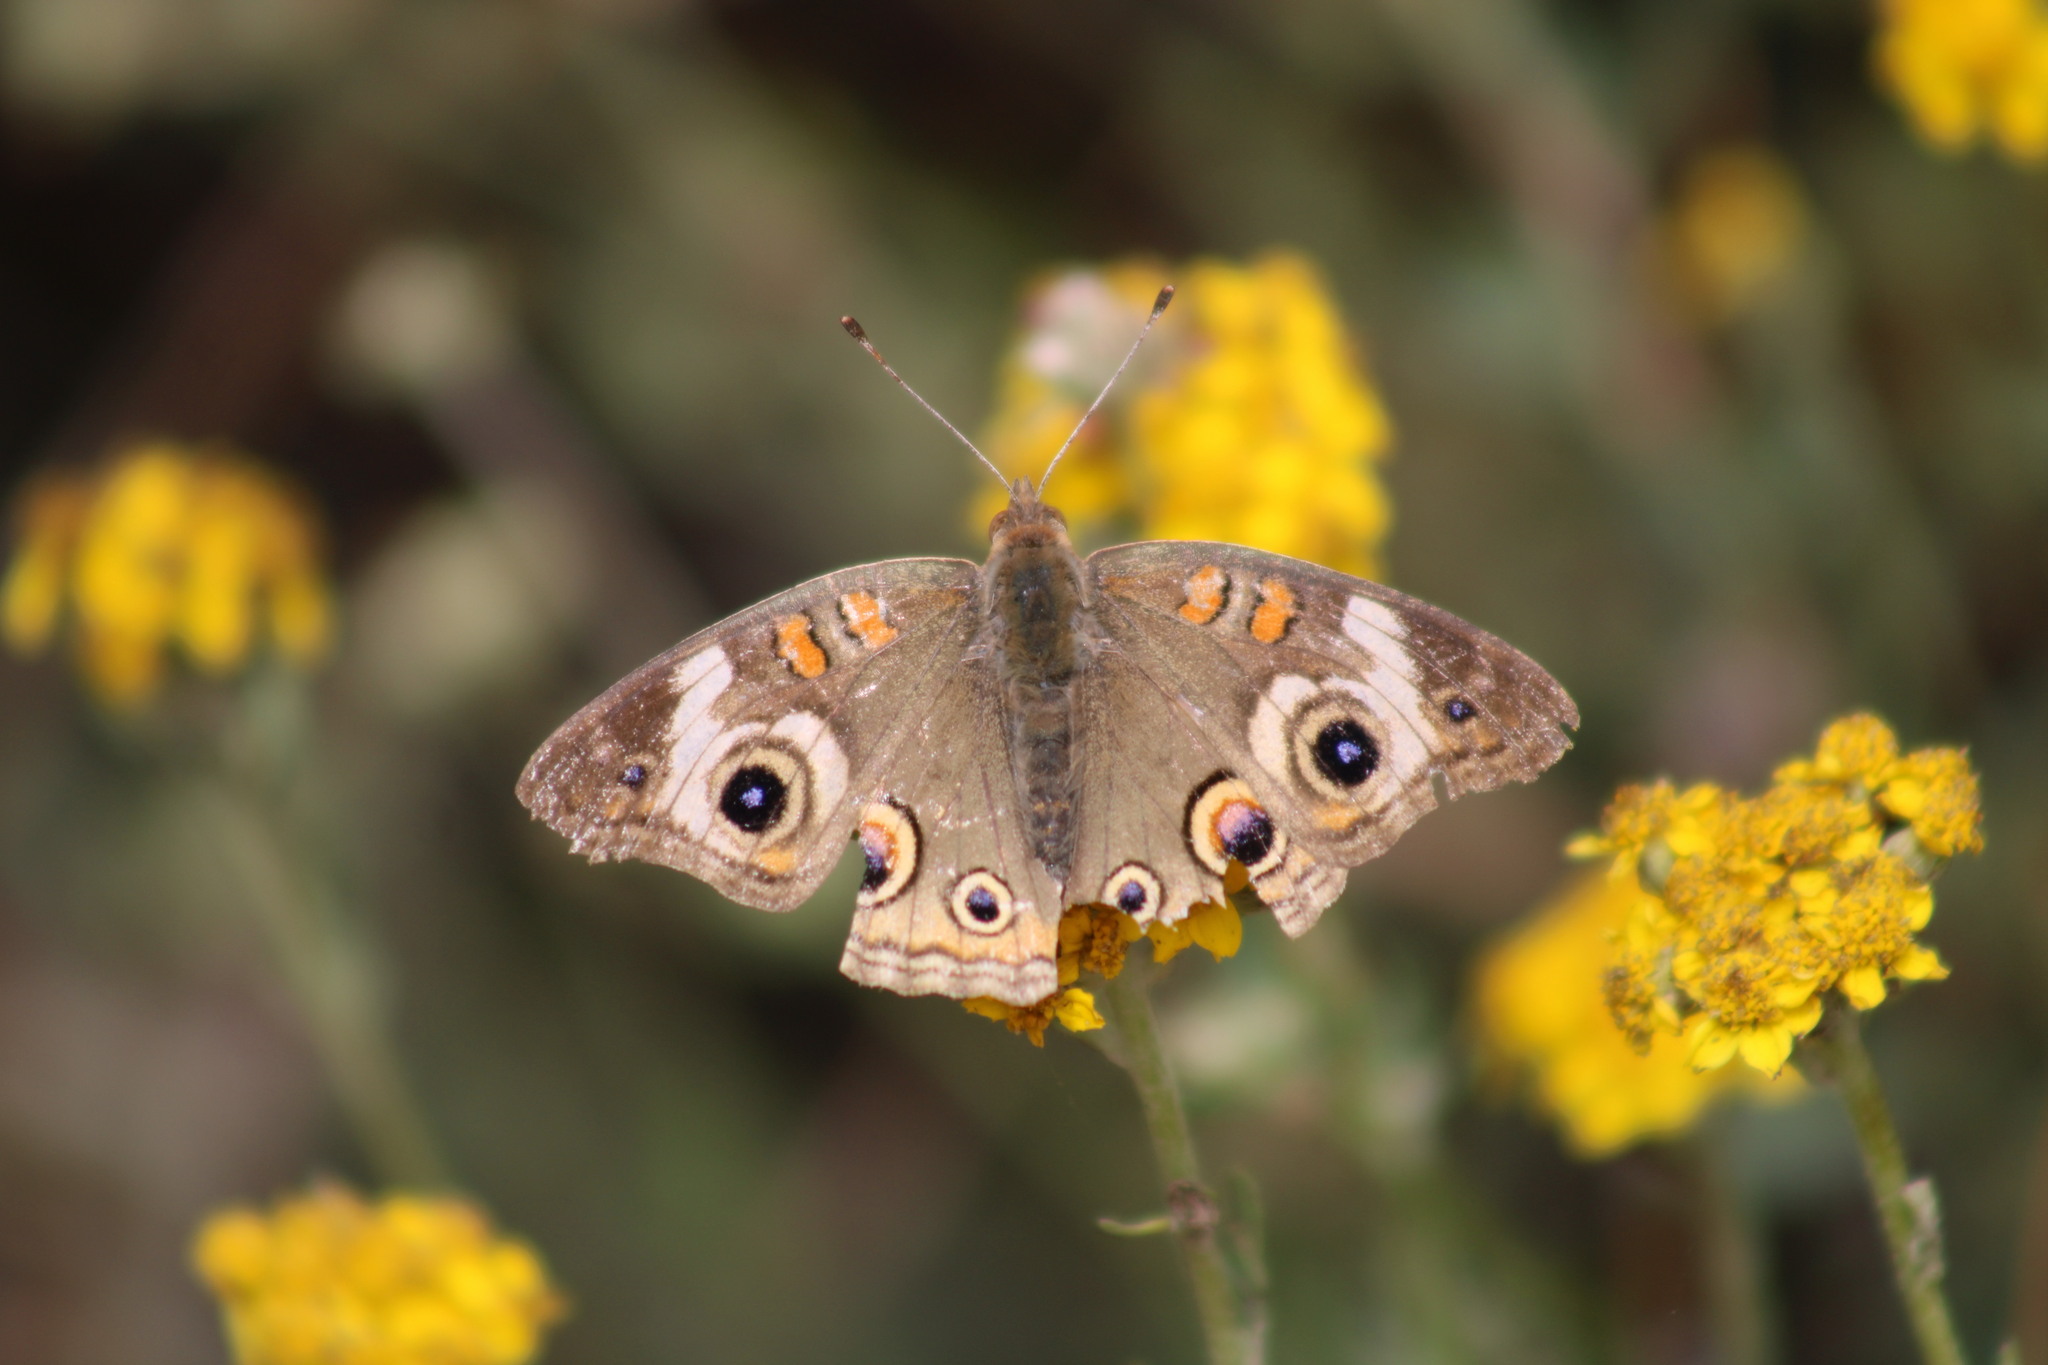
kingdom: Animalia
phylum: Arthropoda
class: Insecta
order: Lepidoptera
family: Nymphalidae
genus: Junonia
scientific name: Junonia grisea
